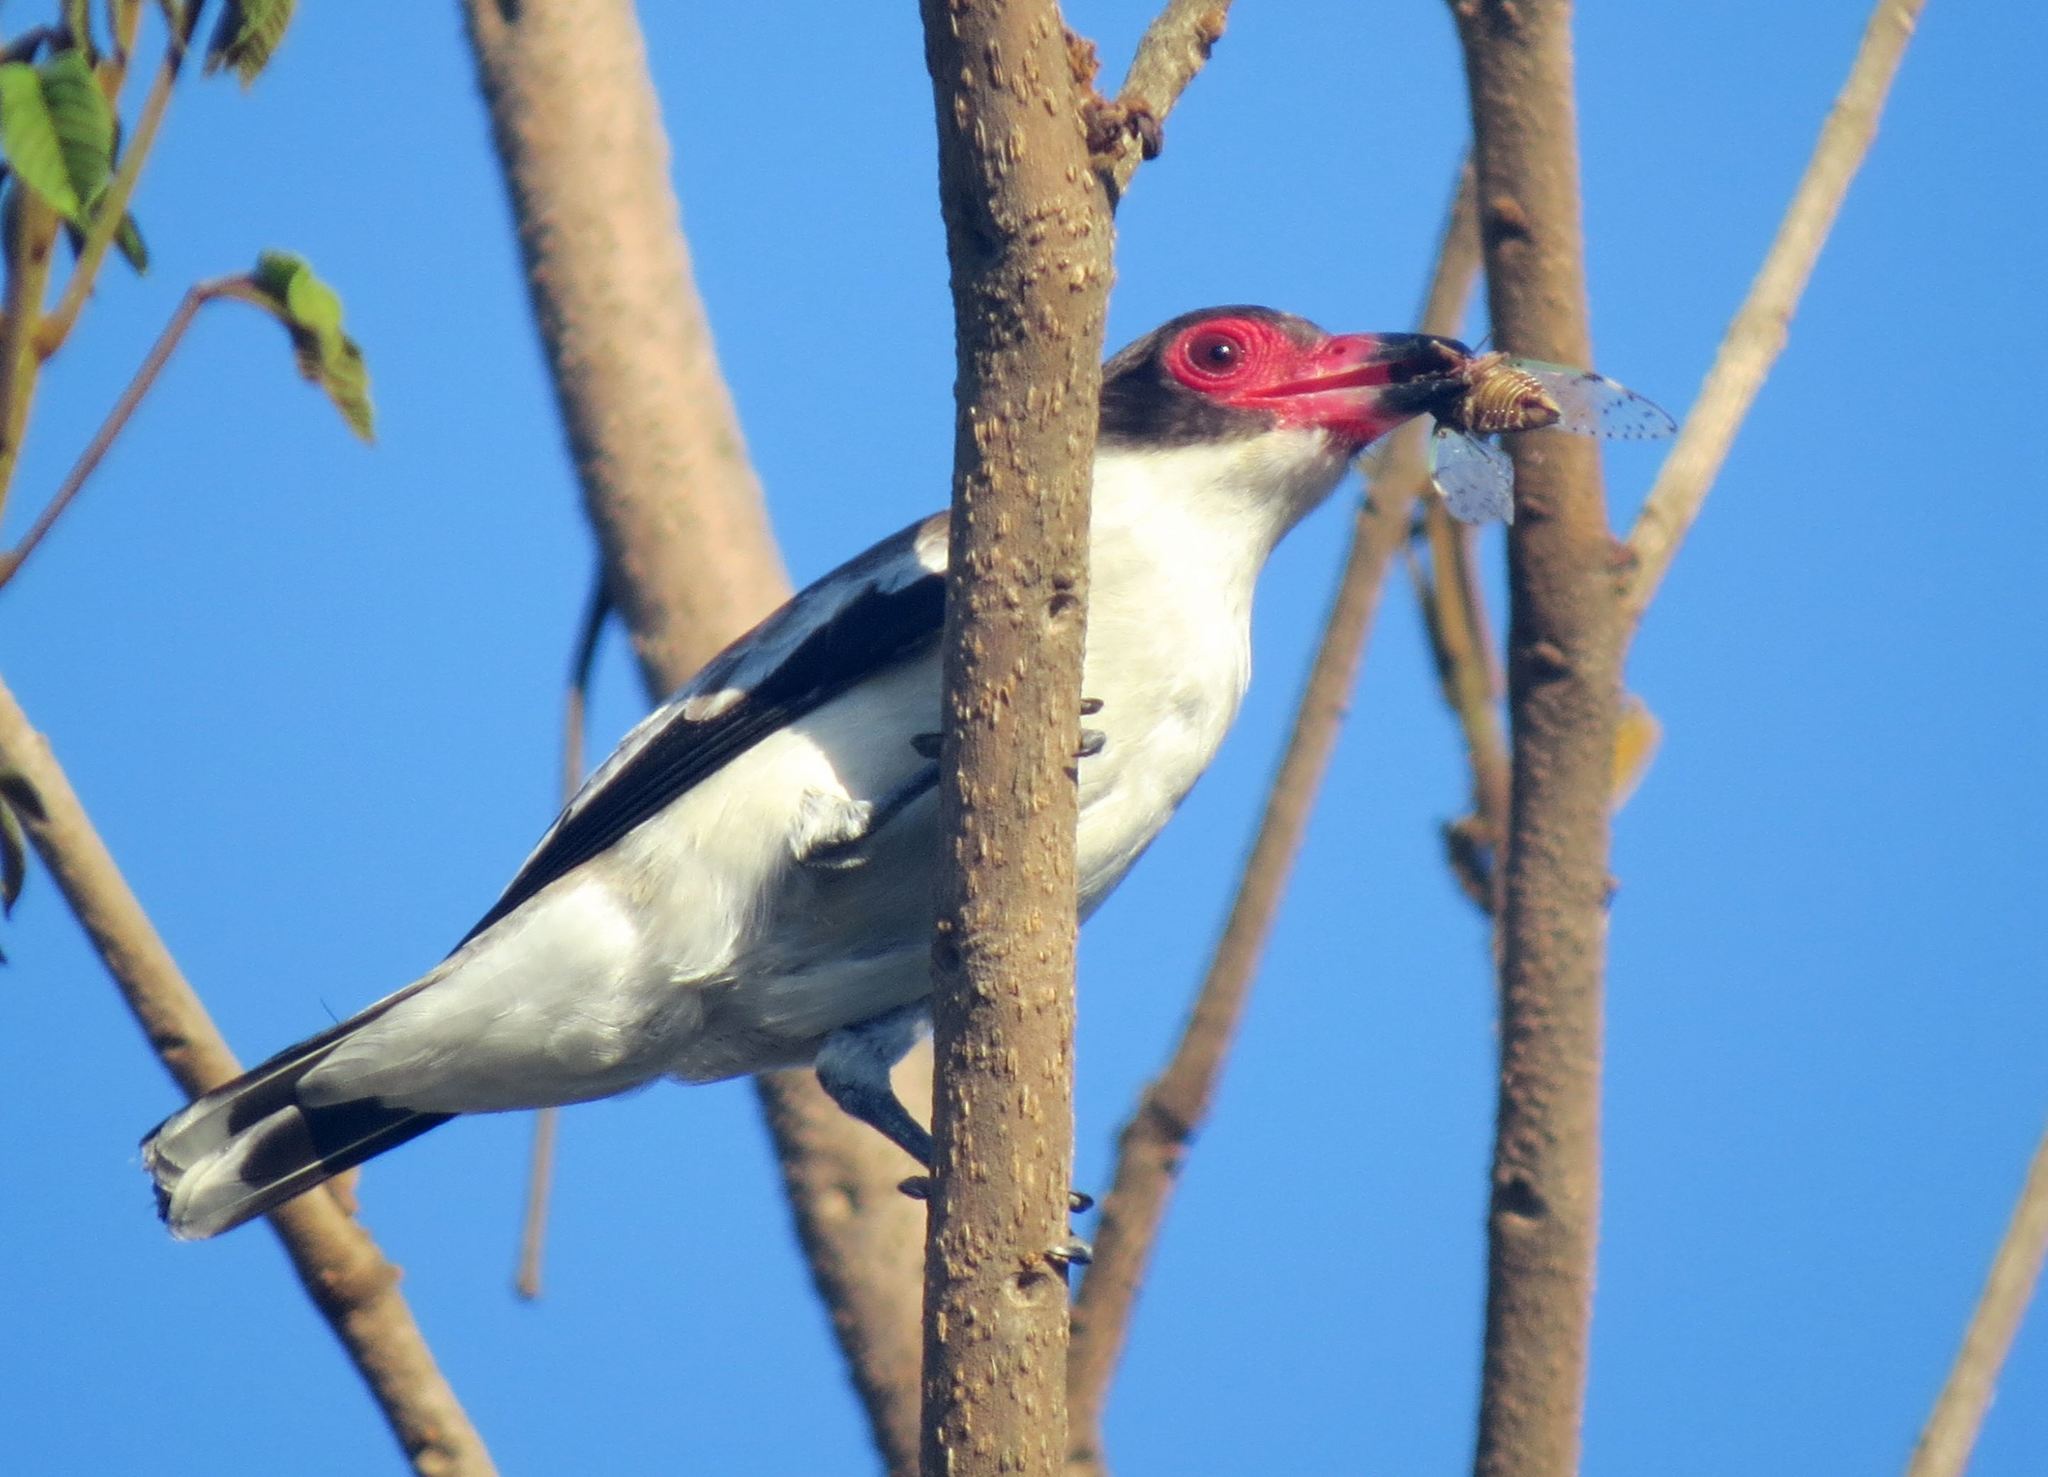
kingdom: Animalia
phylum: Chordata
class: Aves
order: Passeriformes
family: Cotingidae
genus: Tityra
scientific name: Tityra semifasciata
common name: Masked tityra
